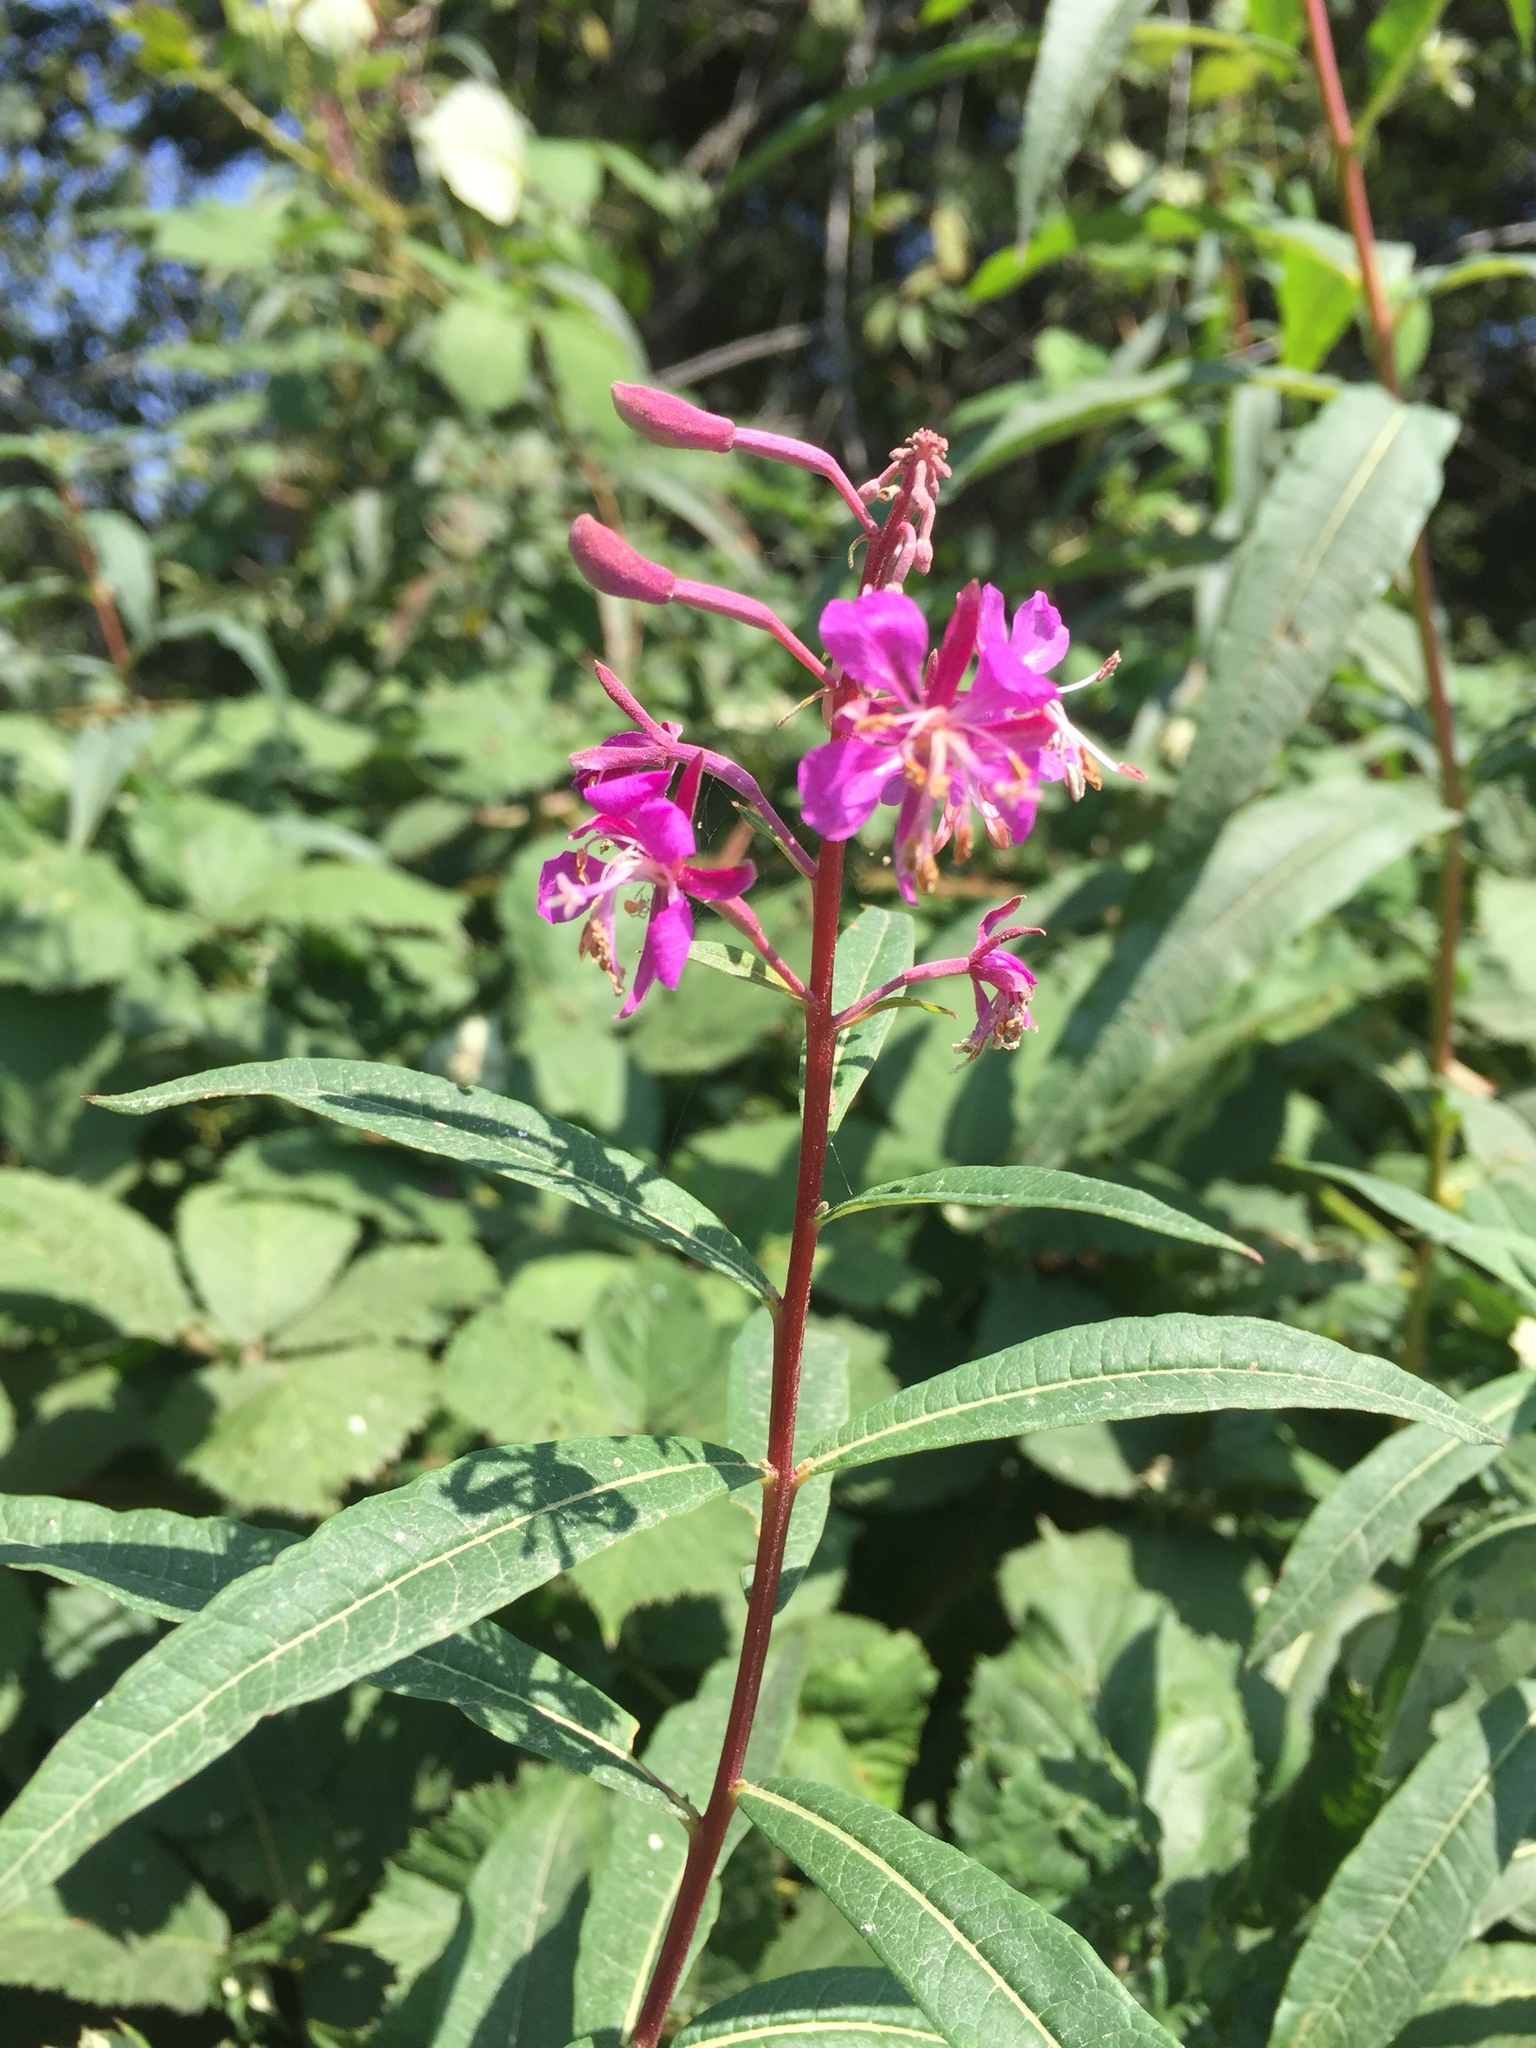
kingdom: Plantae
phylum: Tracheophyta
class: Magnoliopsida
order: Myrtales
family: Onagraceae
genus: Chamaenerion
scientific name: Chamaenerion angustifolium
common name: Fireweed
